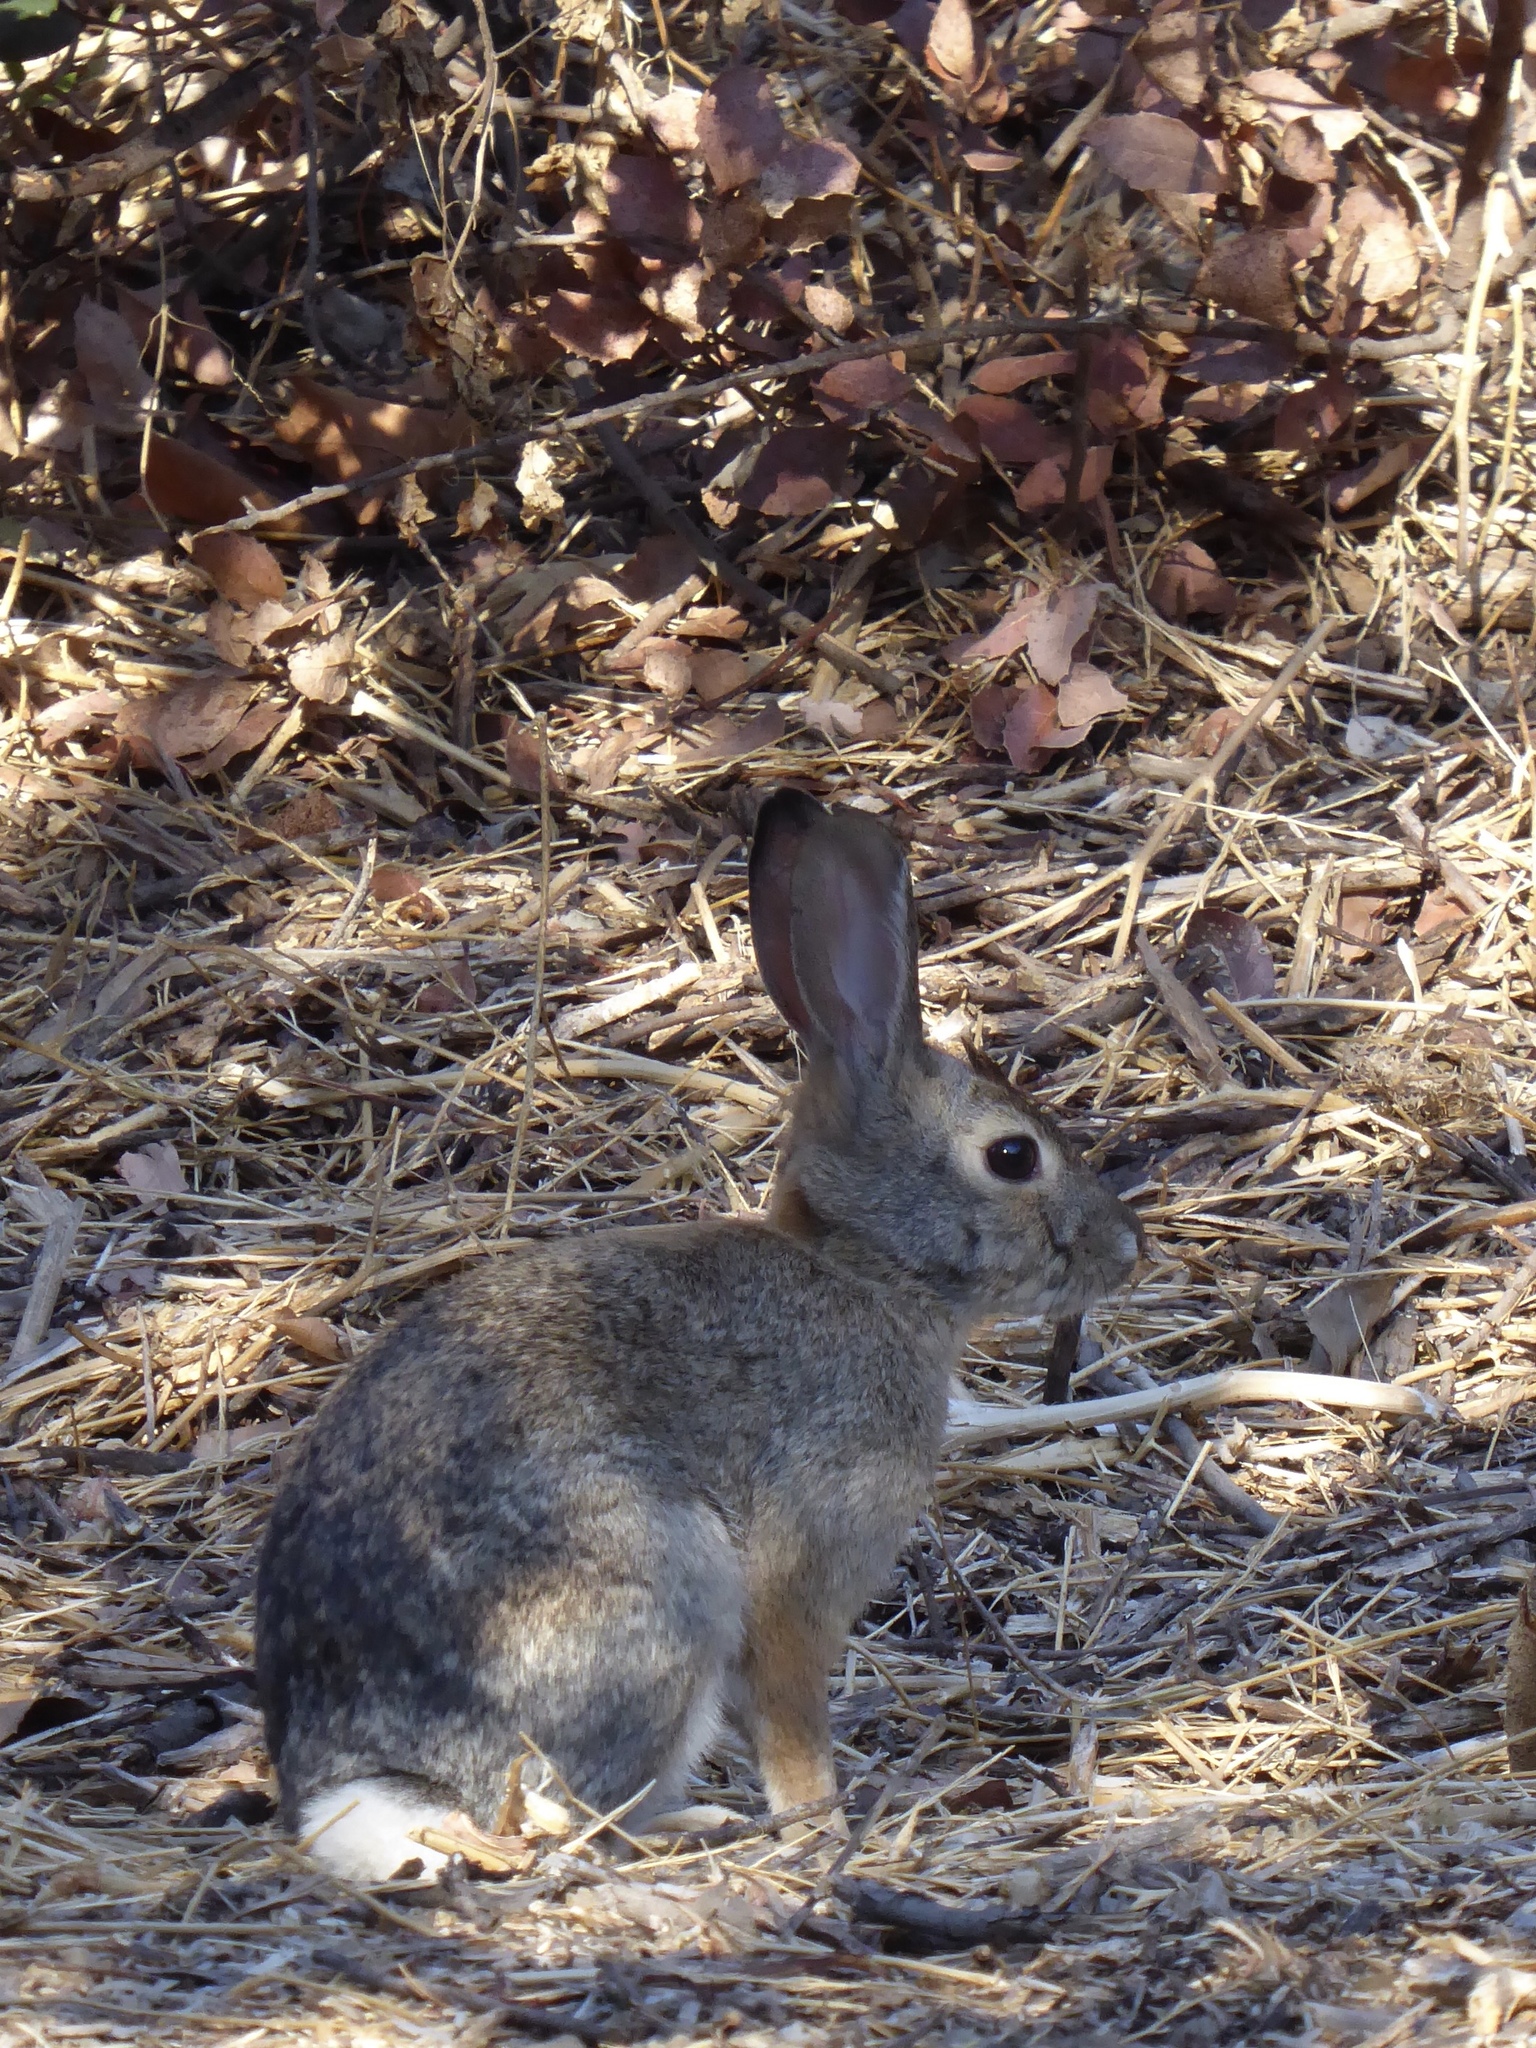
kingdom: Animalia
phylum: Chordata
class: Mammalia
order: Lagomorpha
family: Leporidae
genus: Sylvilagus
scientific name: Sylvilagus audubonii
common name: Desert cottontail
